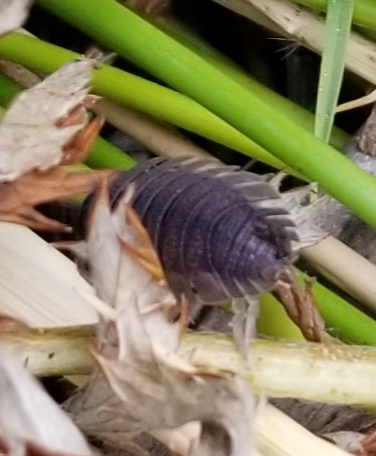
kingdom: Animalia
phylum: Arthropoda
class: Malacostraca
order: Isopoda
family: Porcellionidae
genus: Porcellio
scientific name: Porcellio scaber
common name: Common rough woodlouse
